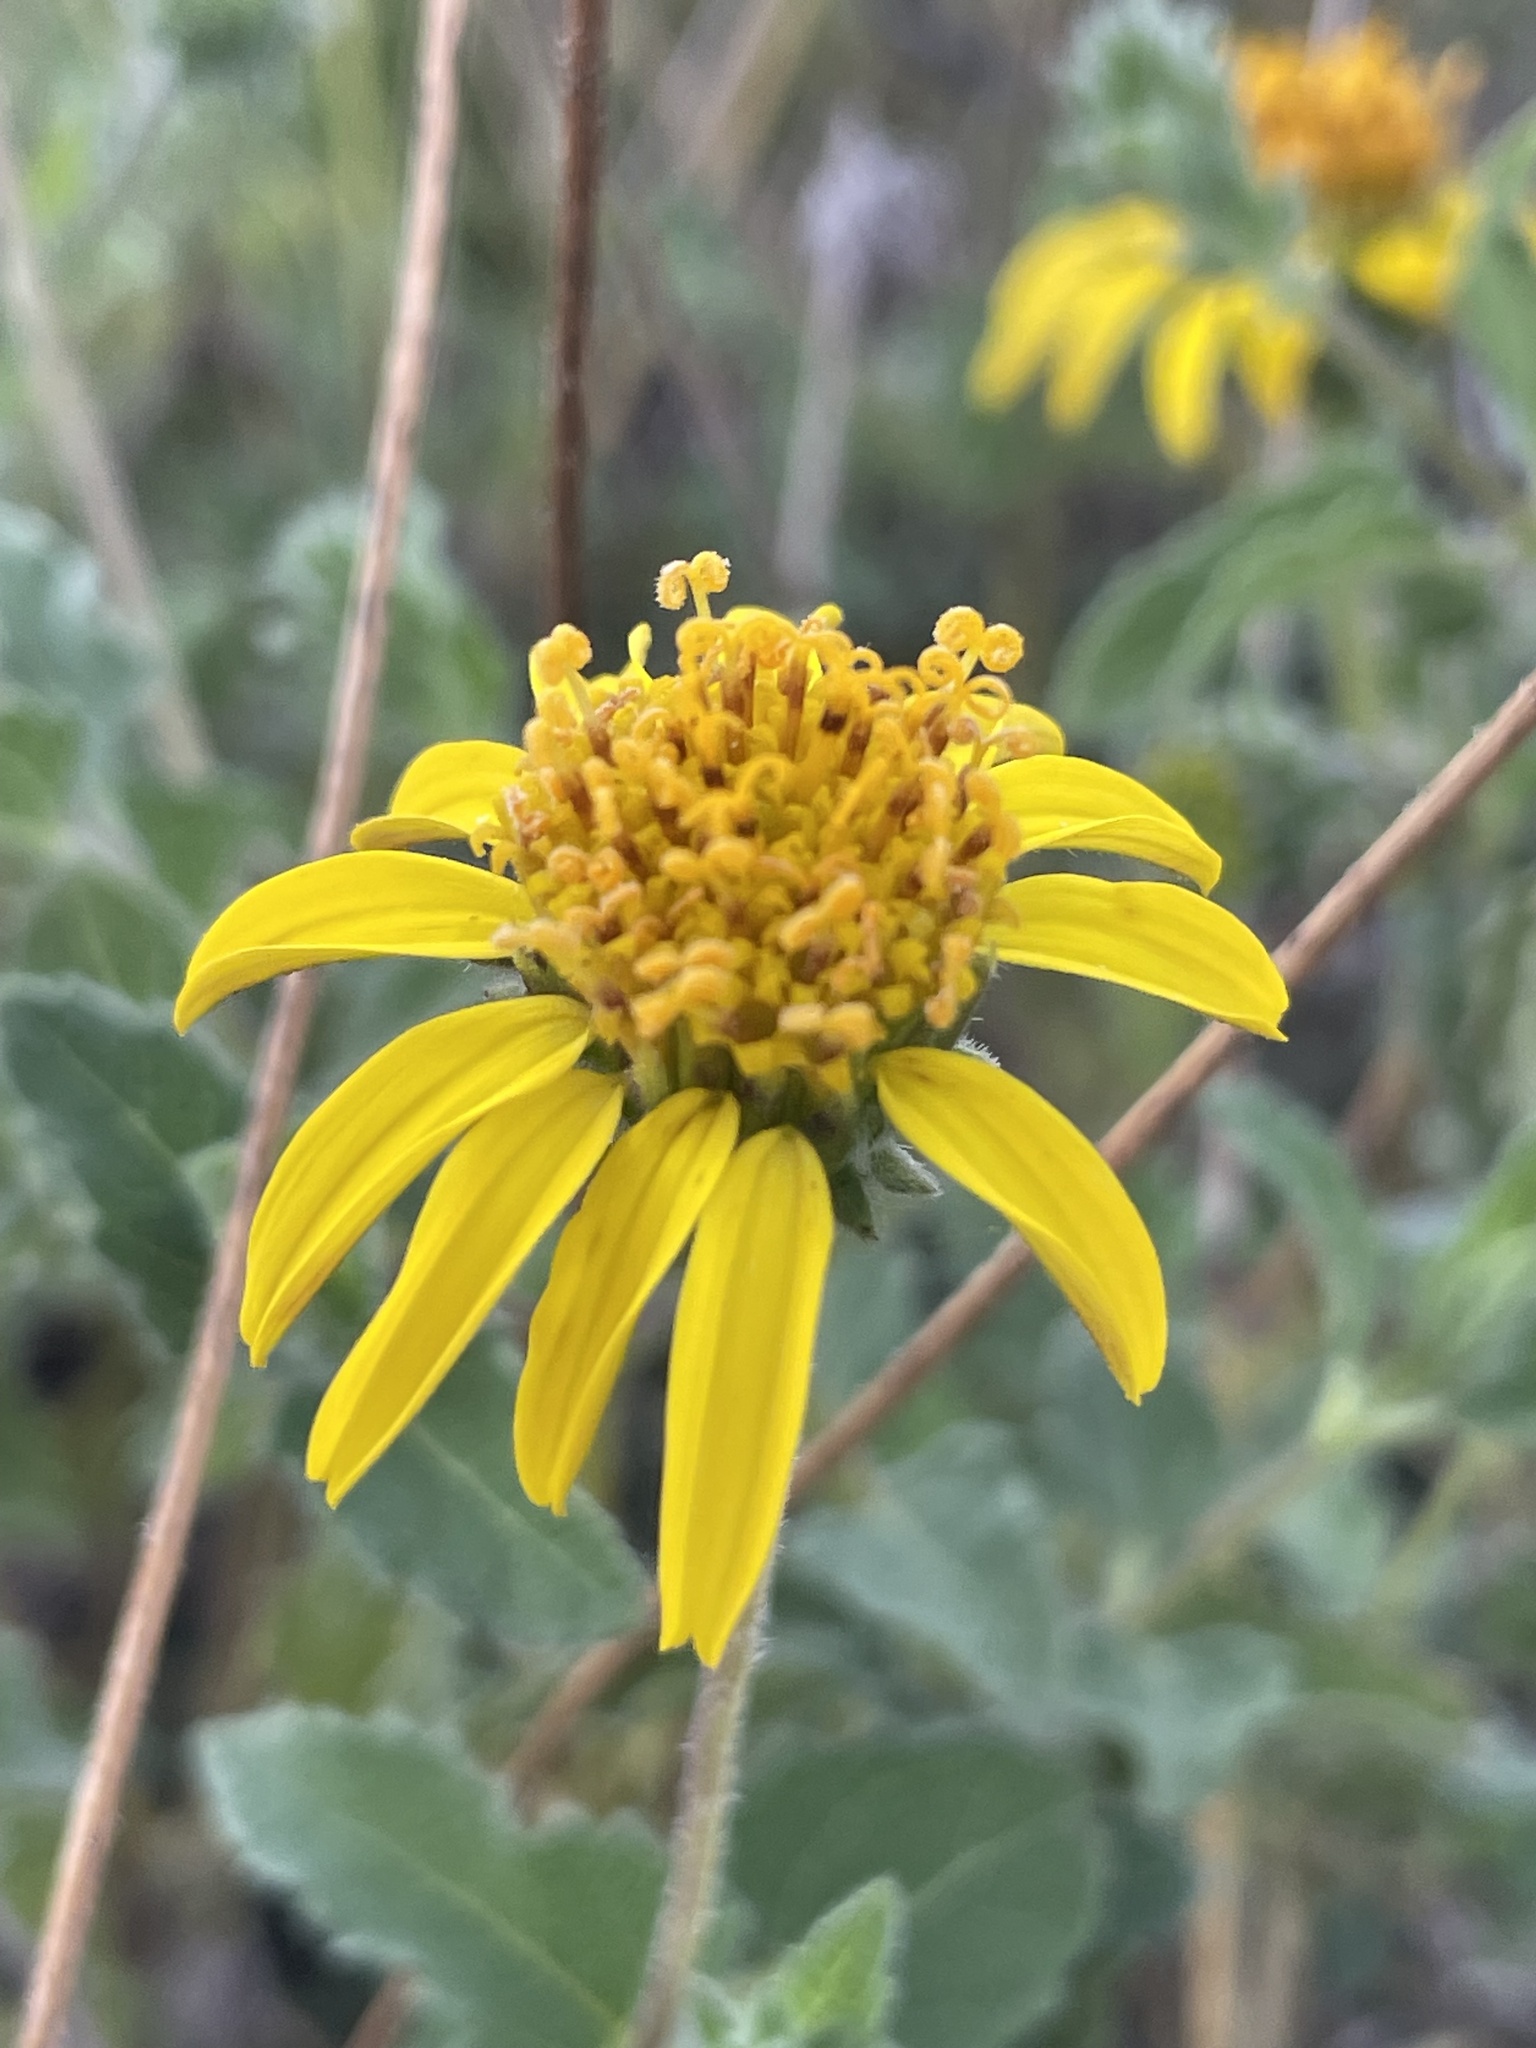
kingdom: Plantae
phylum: Tracheophyta
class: Magnoliopsida
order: Asterales
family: Asteraceae
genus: Simsia
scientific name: Simsia calva
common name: Awnless bush-sunflower
